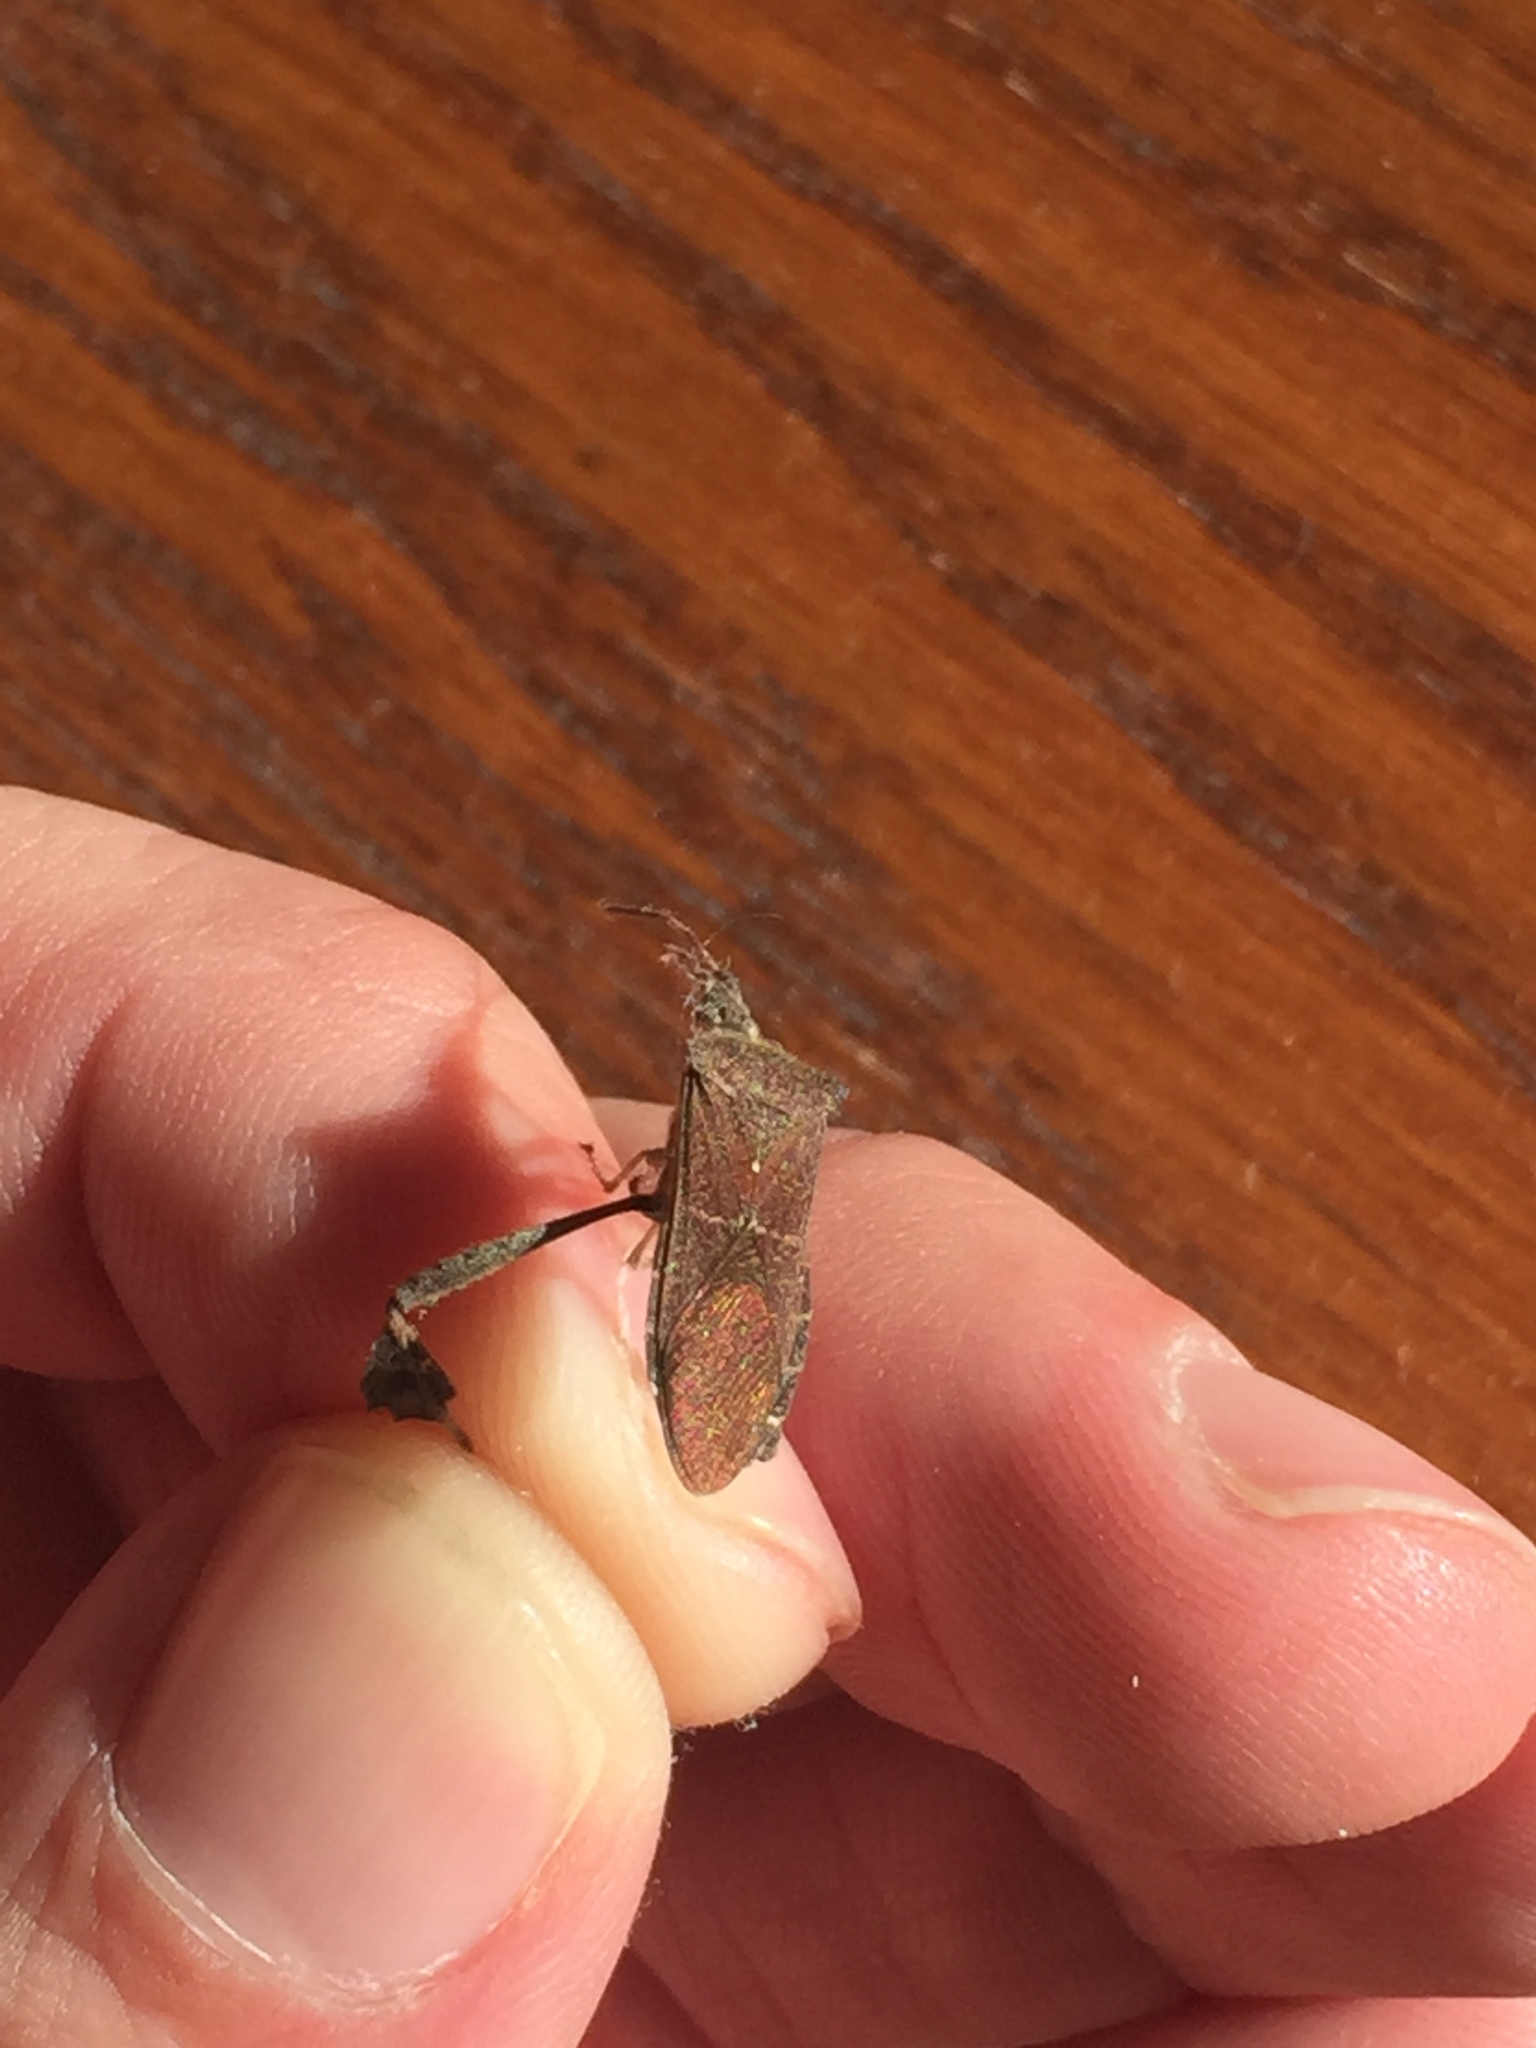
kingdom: Animalia
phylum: Arthropoda
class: Insecta
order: Hemiptera
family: Coreidae
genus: Leptoglossus
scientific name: Leptoglossus oppositus
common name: Northern leaf-footed bug
